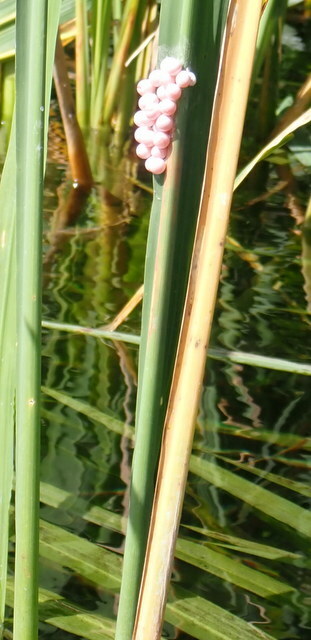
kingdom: Animalia
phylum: Mollusca
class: Gastropoda
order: Architaenioglossa
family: Ampullariidae
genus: Pomacea
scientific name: Pomacea paludosa
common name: Florida applesnail
